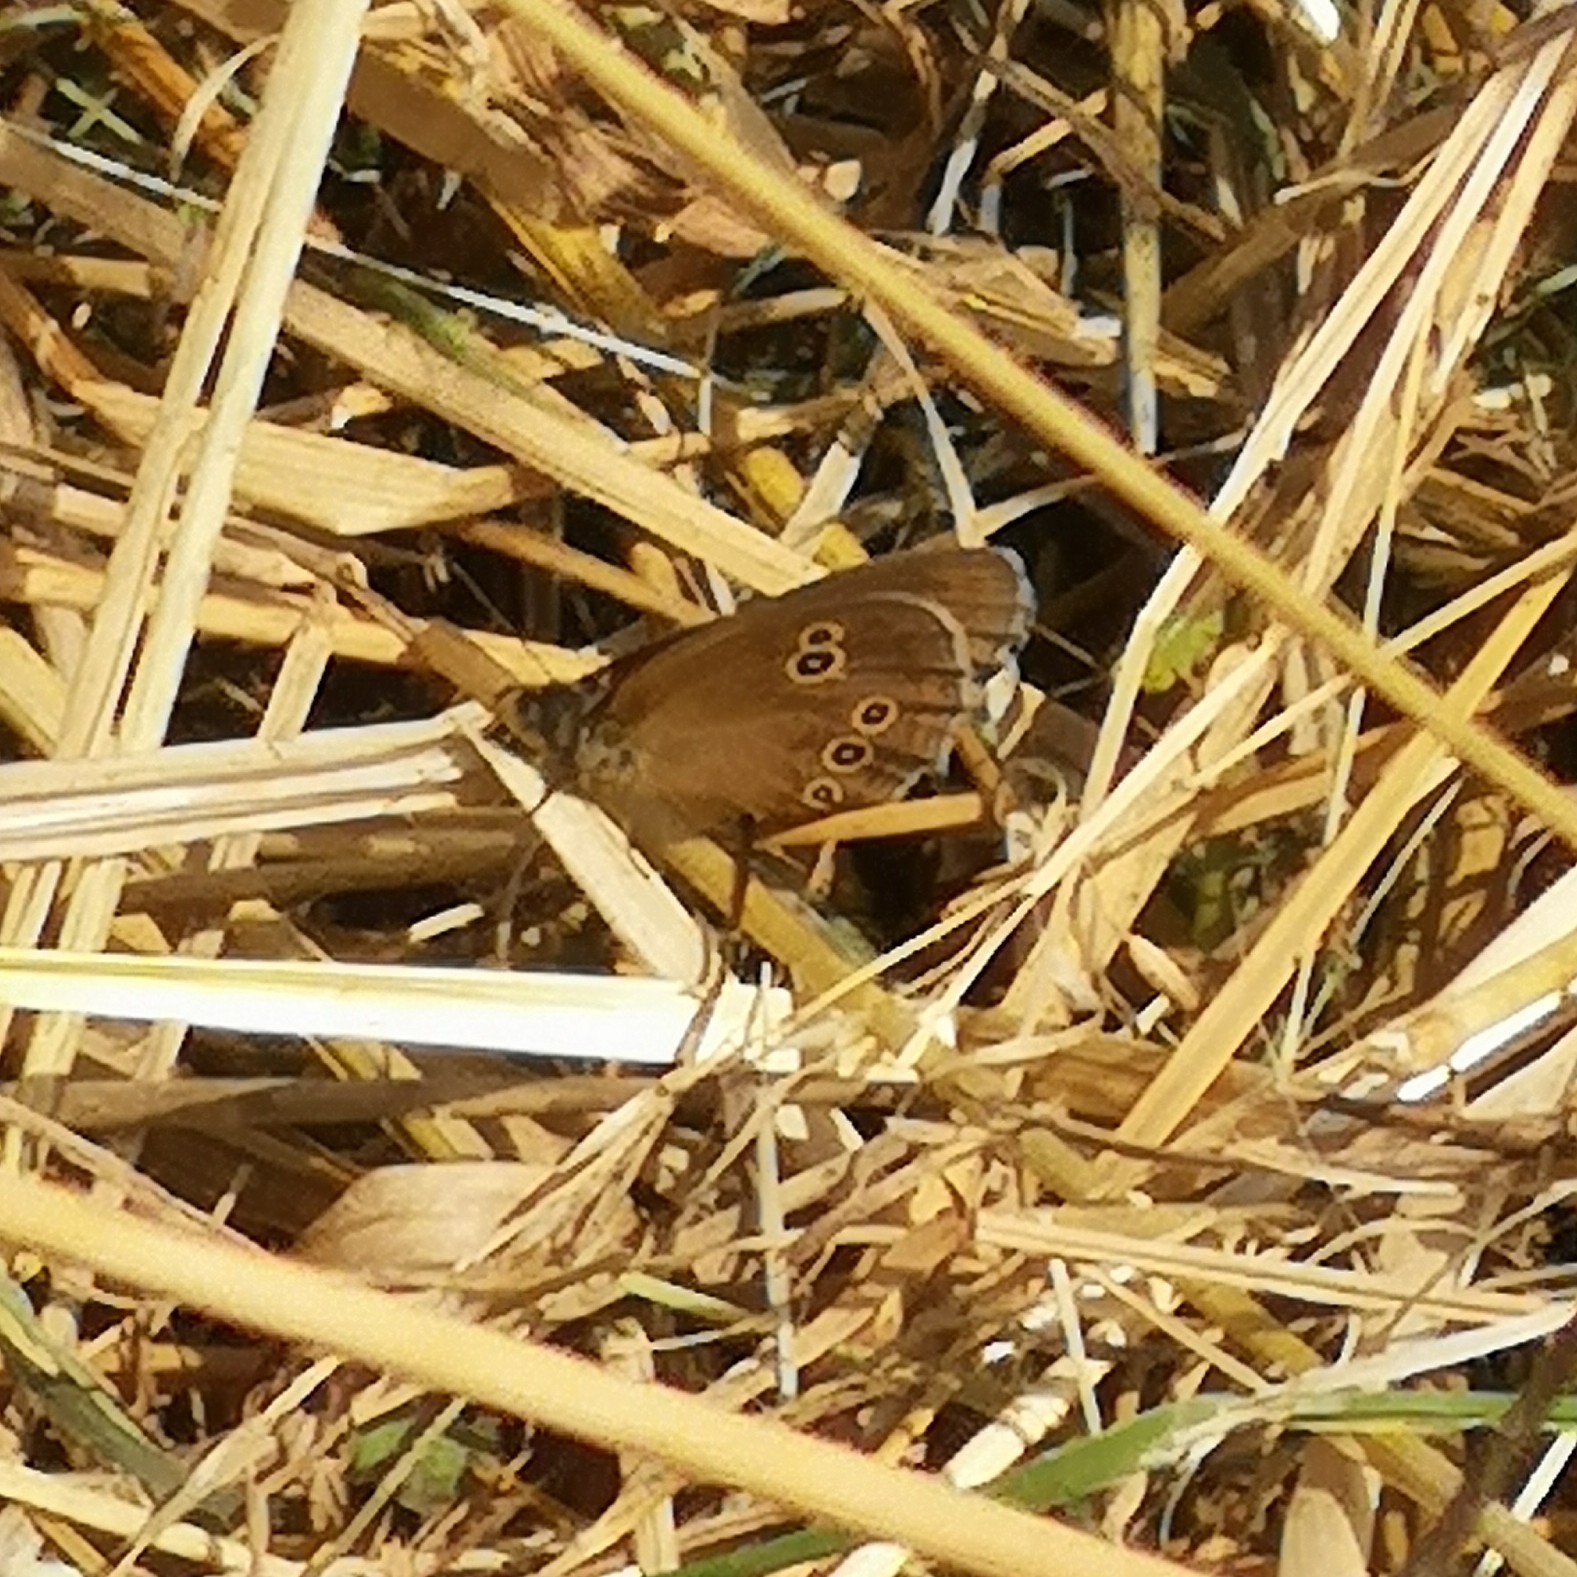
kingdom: Animalia
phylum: Arthropoda
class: Insecta
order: Lepidoptera
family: Nymphalidae
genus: Aphantopus
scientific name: Aphantopus hyperantus
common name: Ringlet
